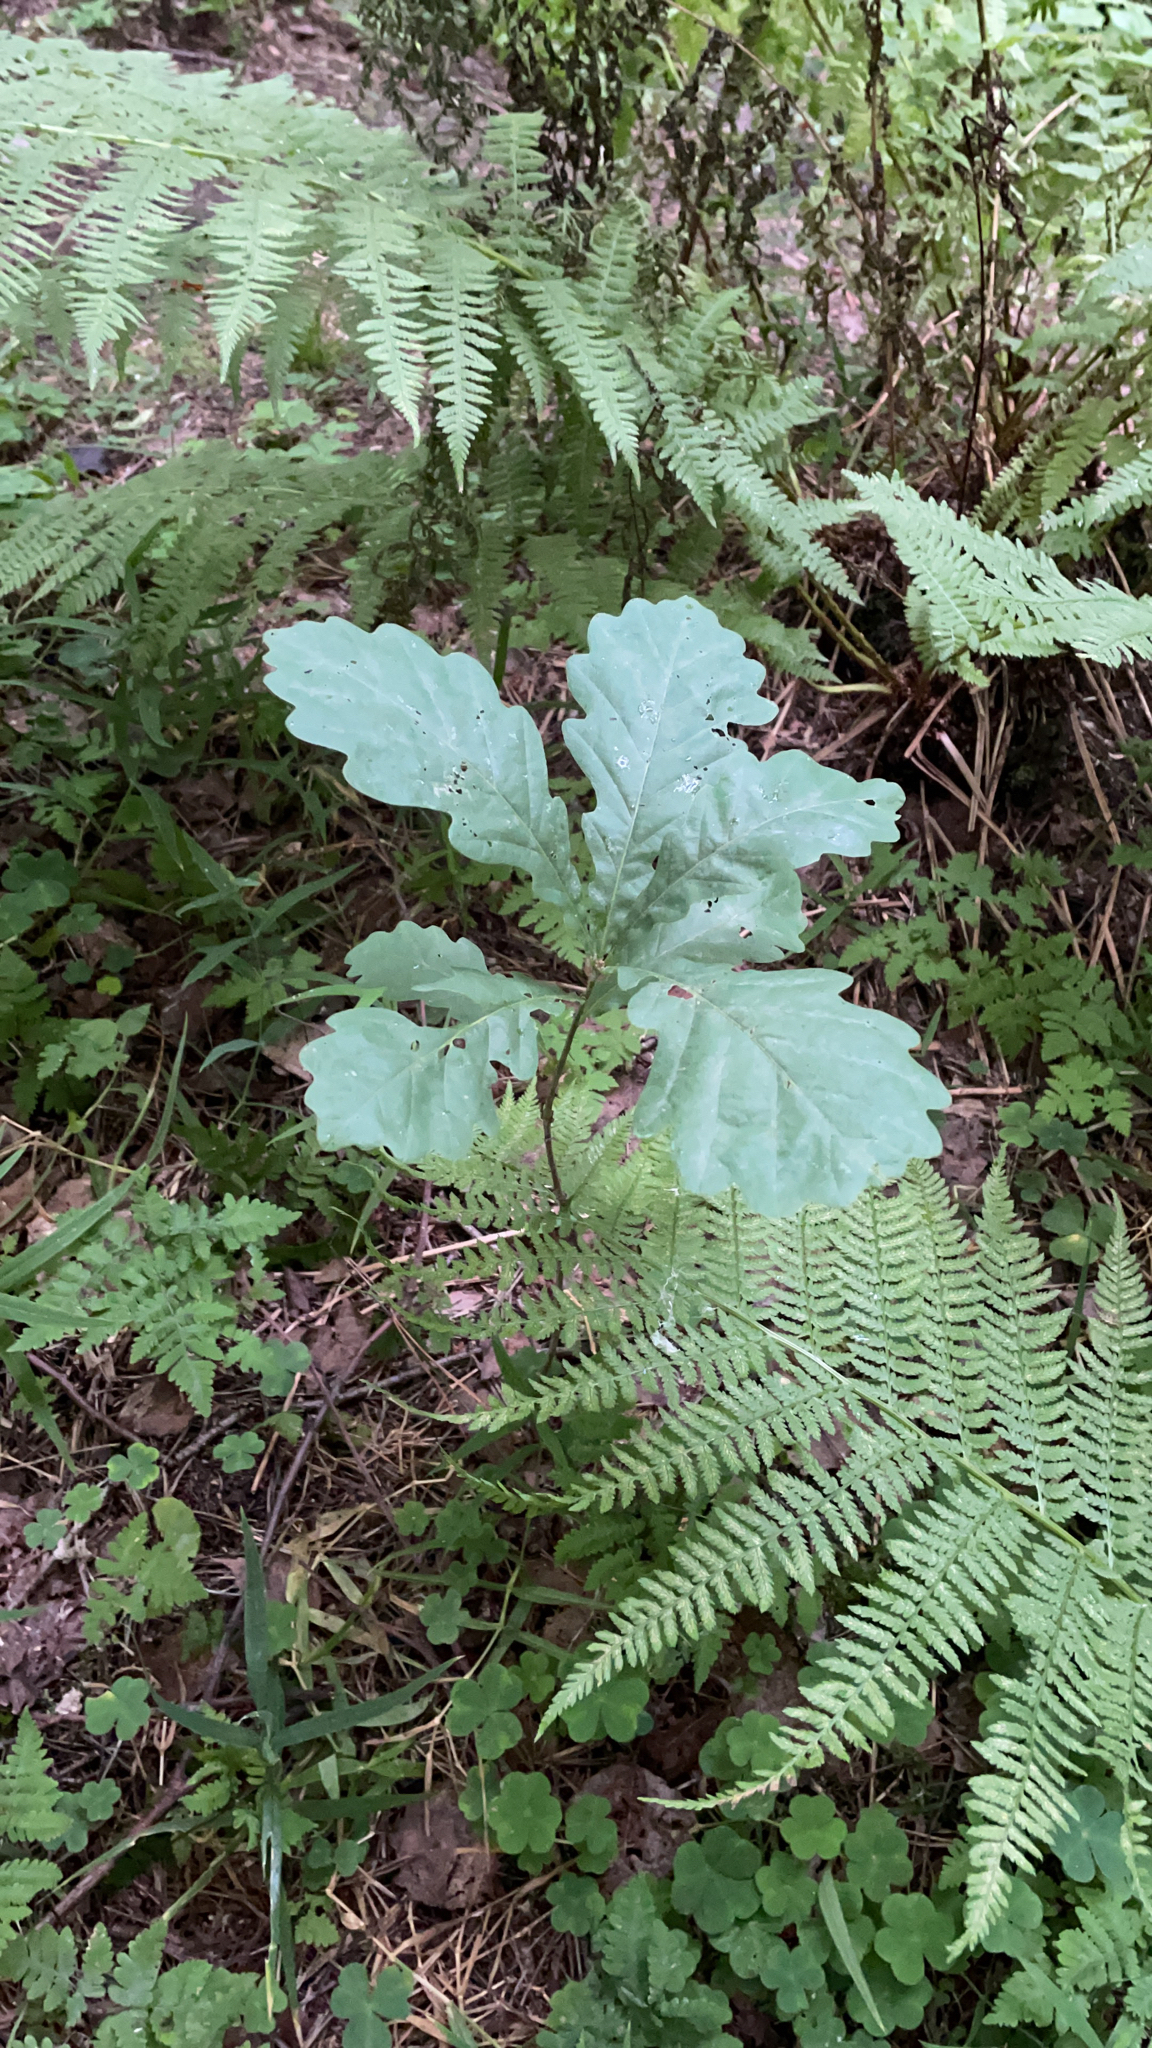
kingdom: Plantae
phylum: Tracheophyta
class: Magnoliopsida
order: Fagales
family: Fagaceae
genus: Quercus
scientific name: Quercus robur
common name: Pedunculate oak
